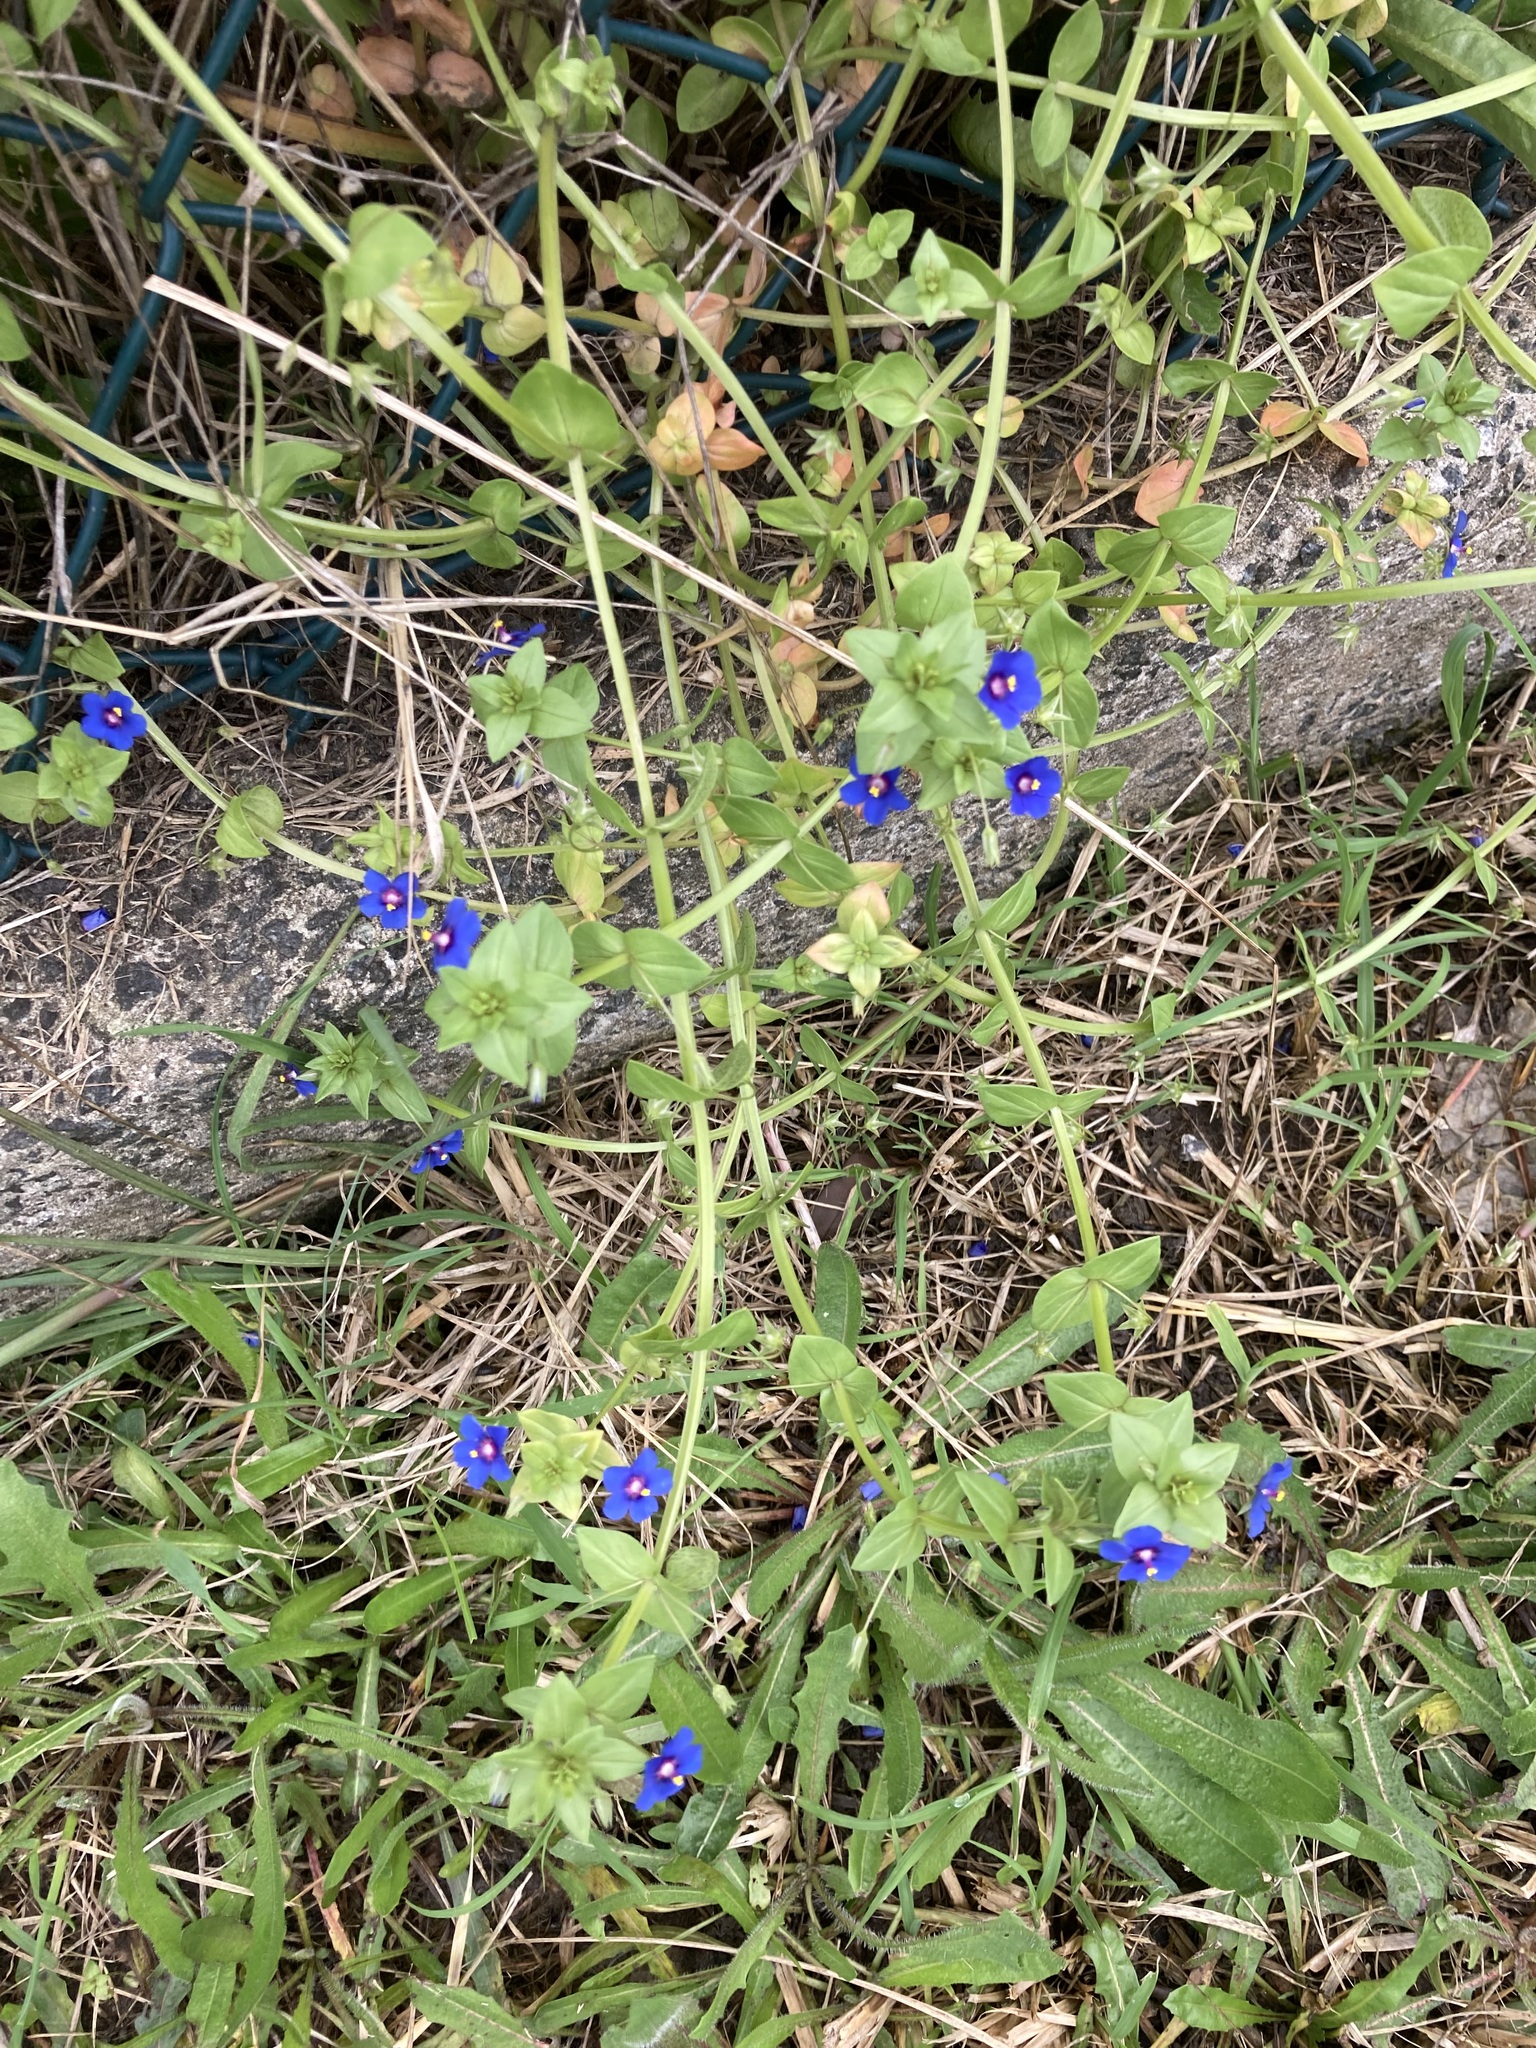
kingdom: Plantae
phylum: Tracheophyta
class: Magnoliopsida
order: Ericales
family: Primulaceae
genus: Lysimachia
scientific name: Lysimachia loeflingii
